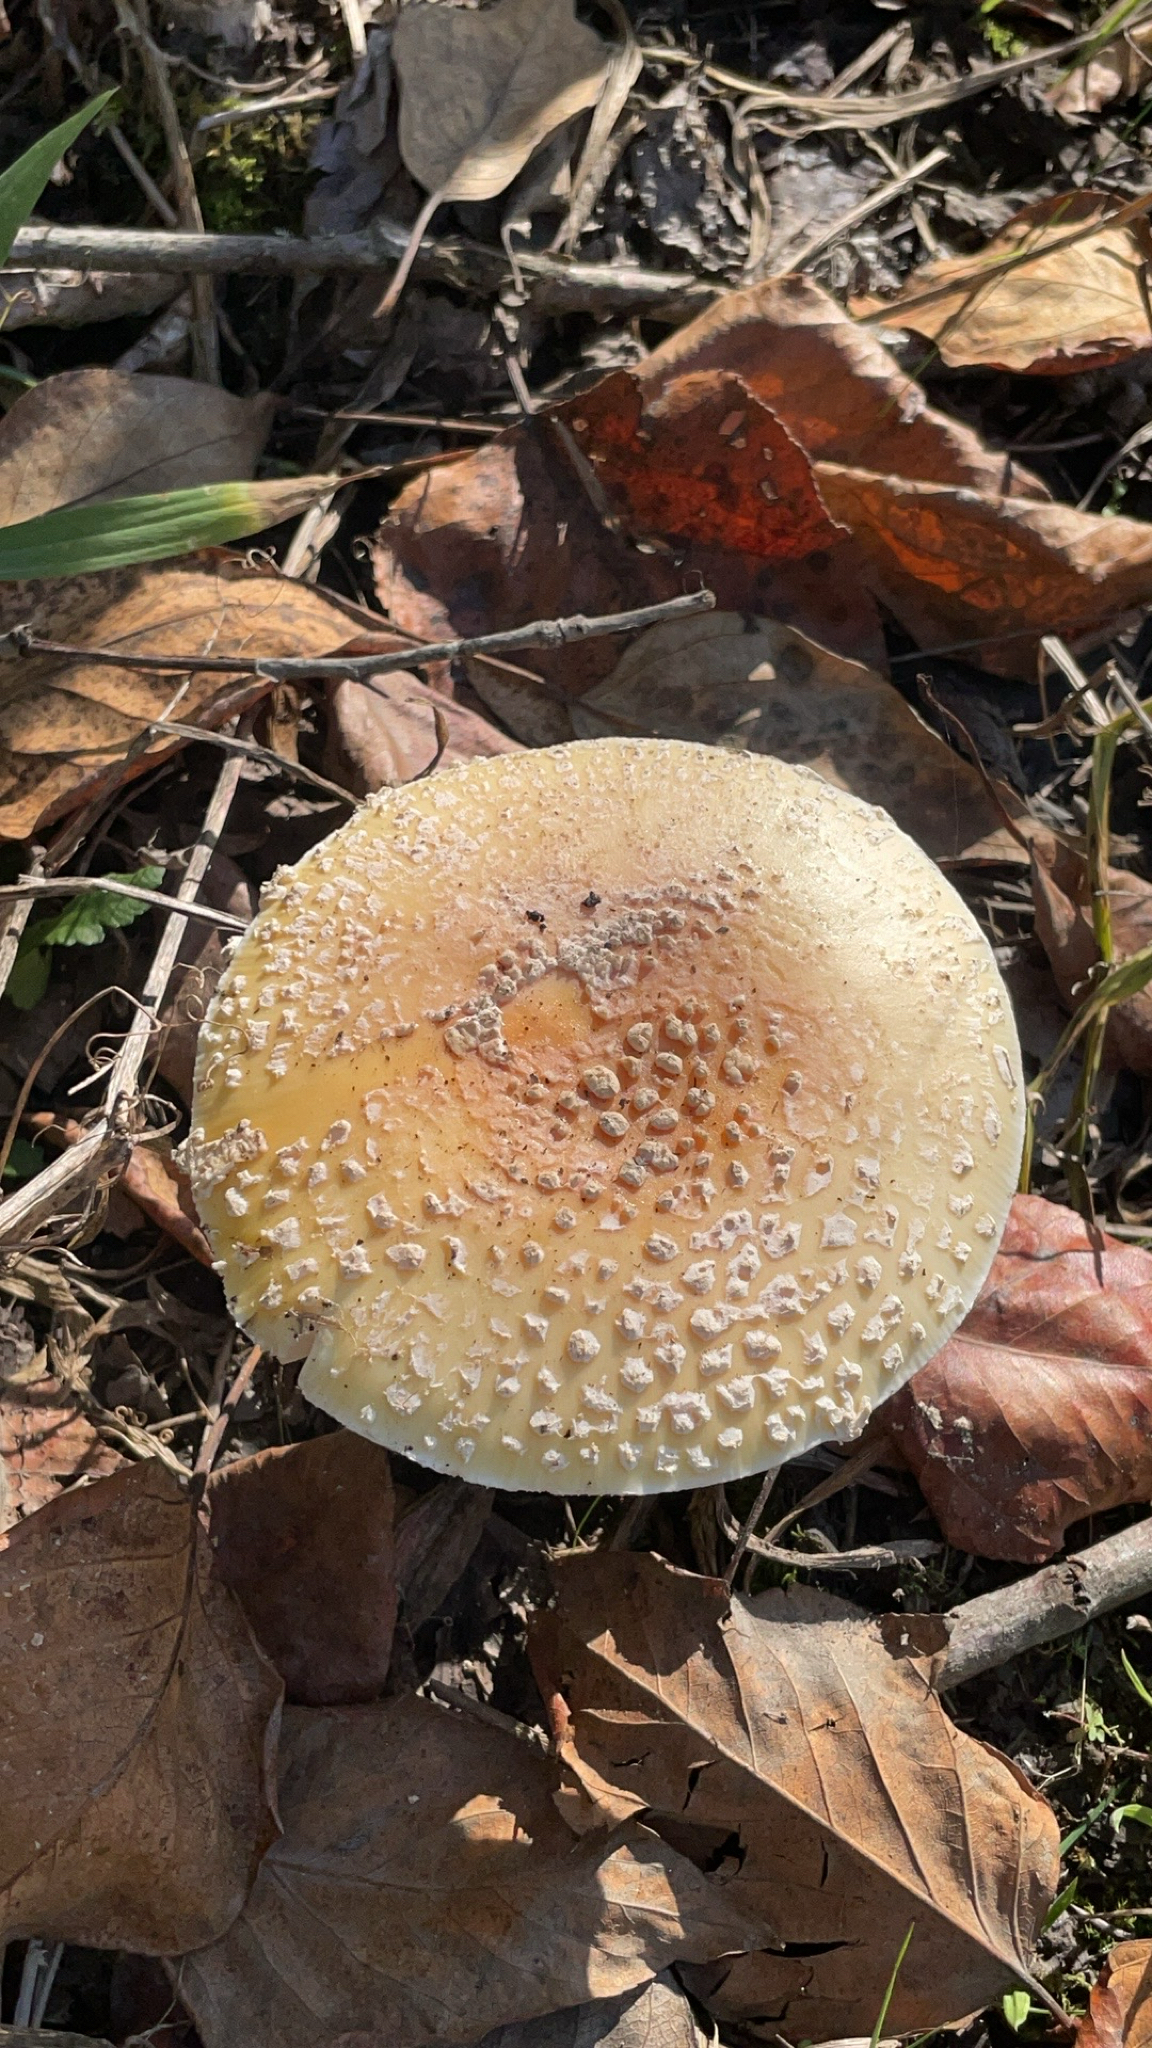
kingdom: Fungi
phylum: Basidiomycota
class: Agaricomycetes
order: Agaricales
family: Amanitaceae
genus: Amanita
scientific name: Amanita muscaria
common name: Fly agaric
